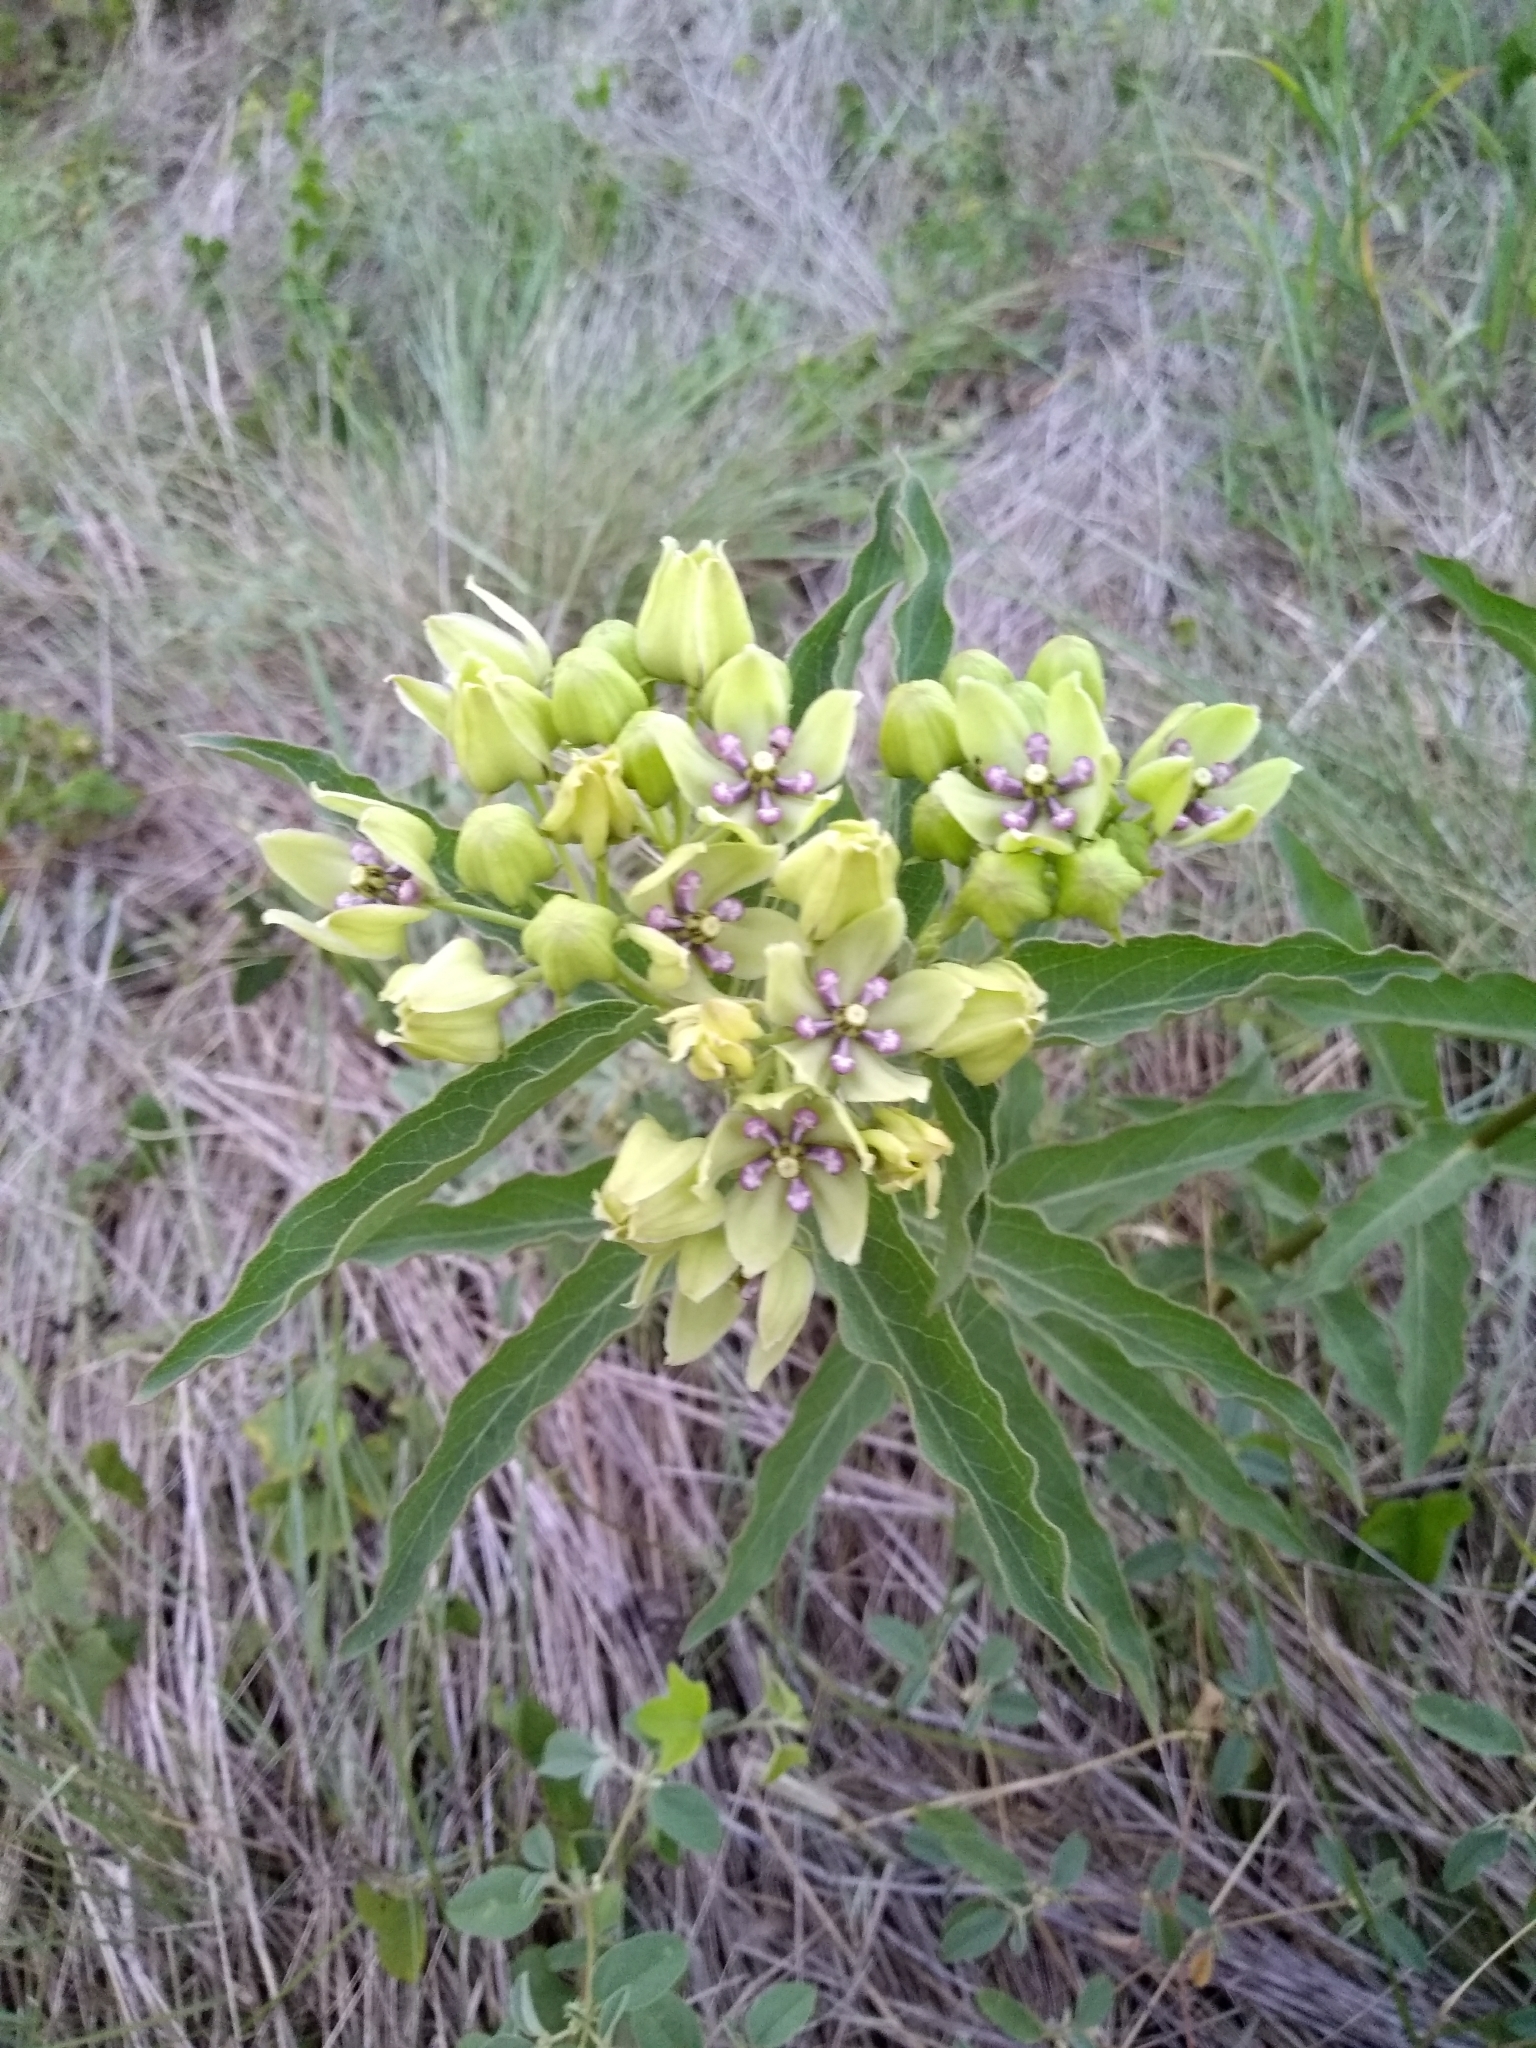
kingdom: Plantae
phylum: Tracheophyta
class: Magnoliopsida
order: Gentianales
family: Apocynaceae
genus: Asclepias
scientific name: Asclepias viridis
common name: Antelope-horns
